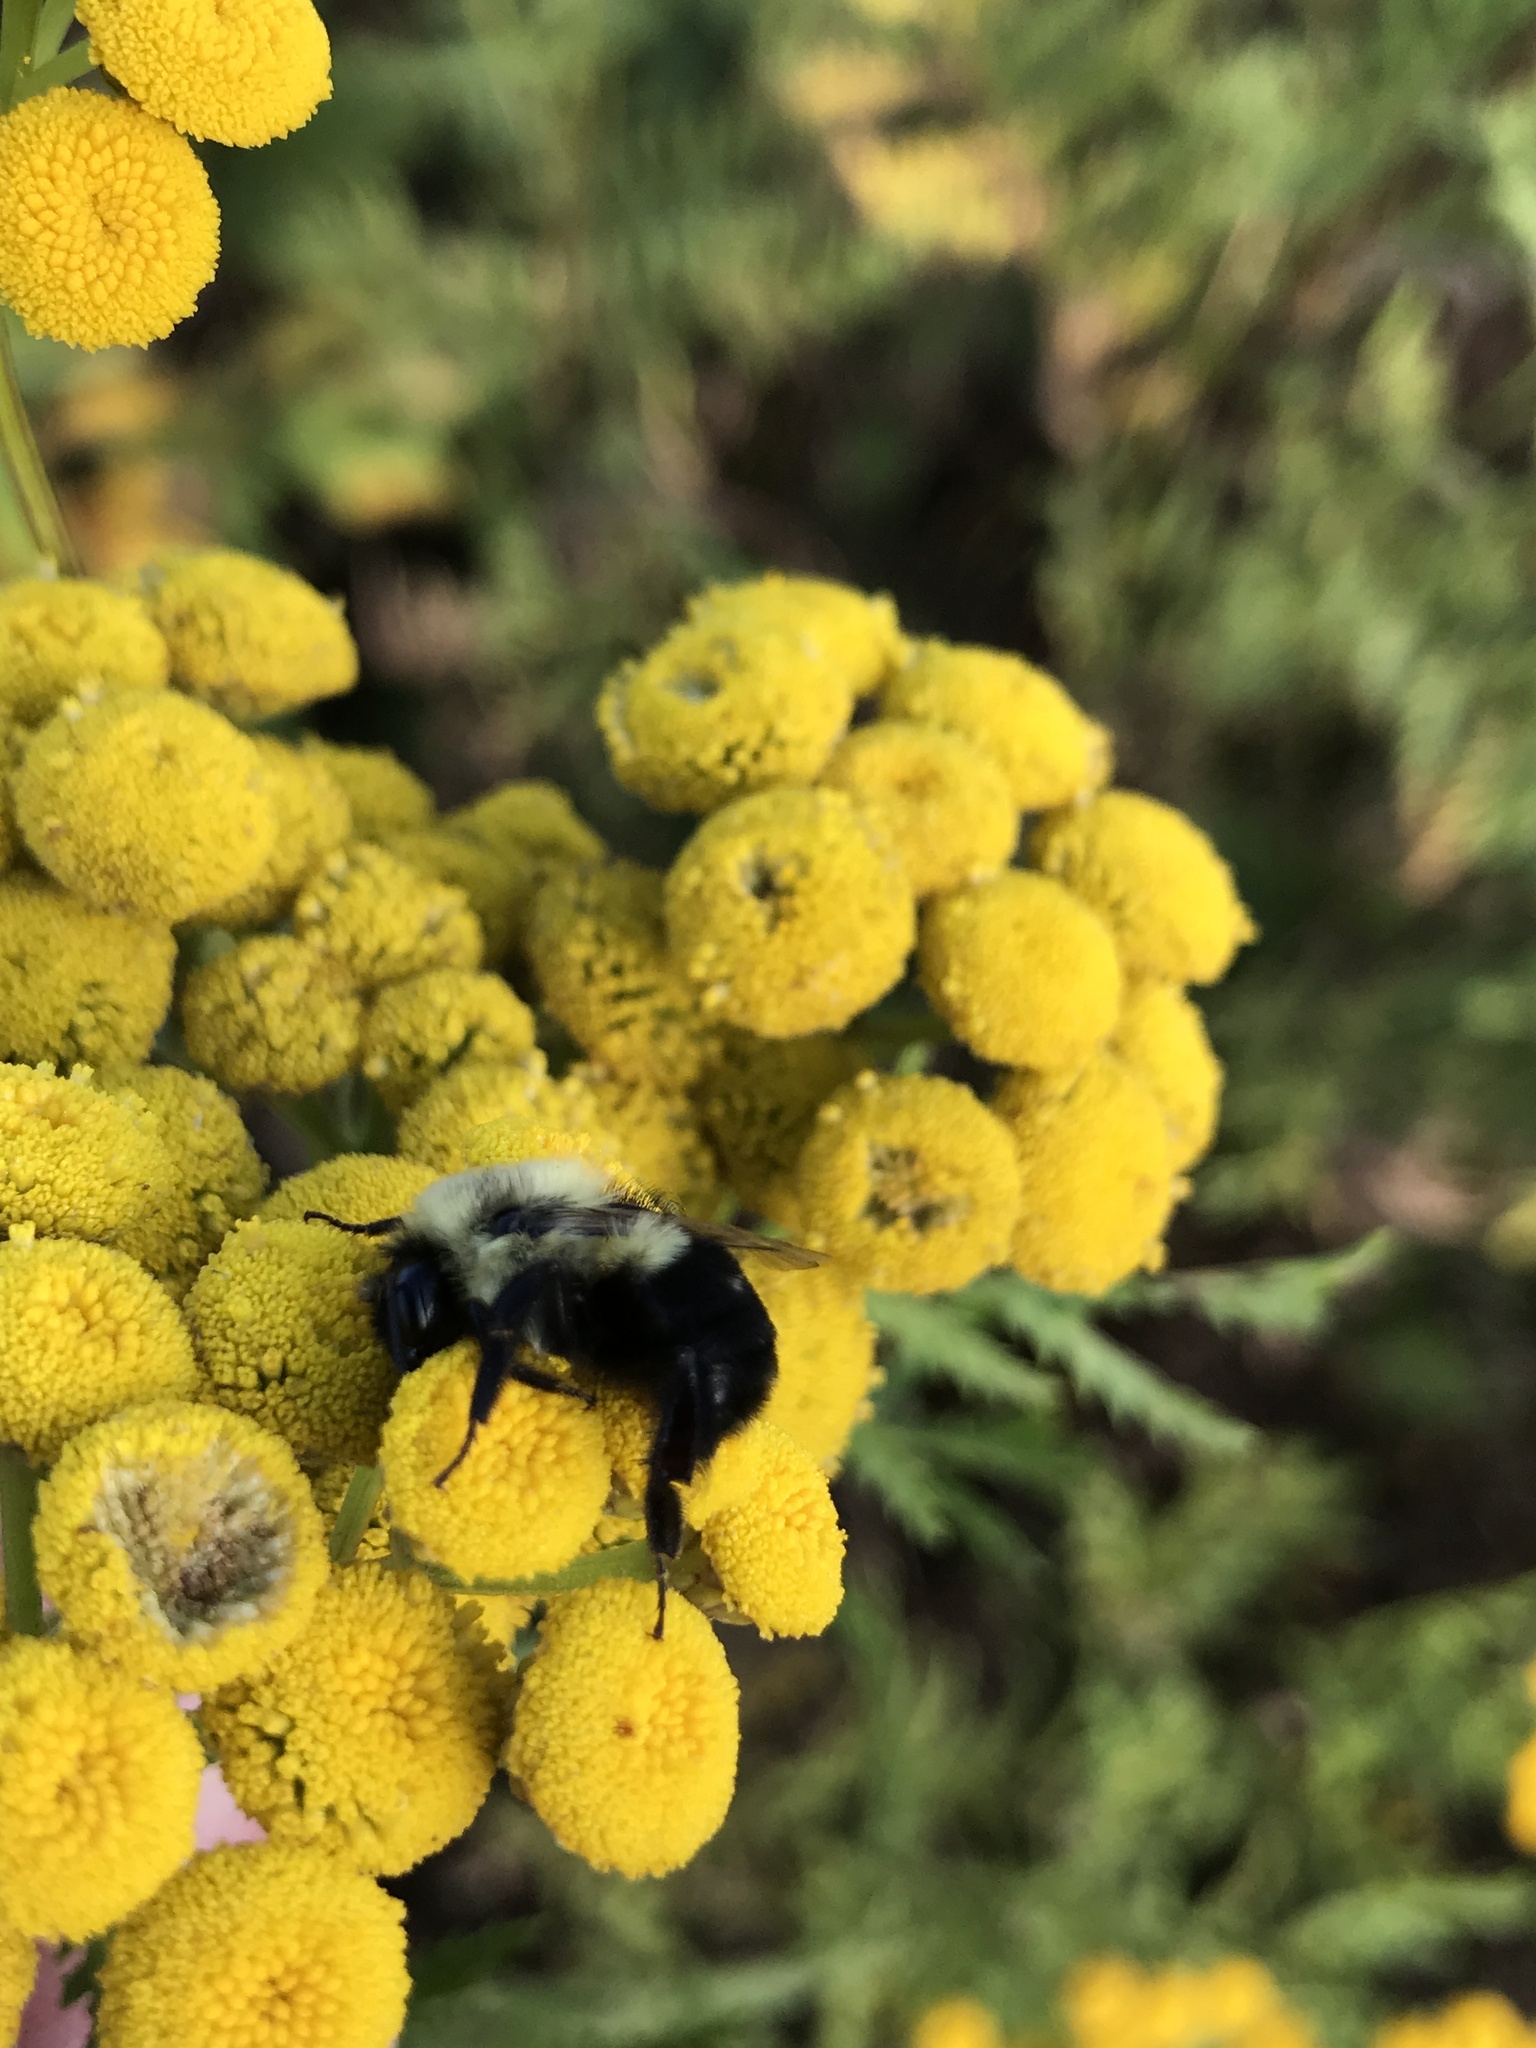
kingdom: Animalia
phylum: Arthropoda
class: Insecta
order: Hymenoptera
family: Apidae
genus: Bombus
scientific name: Bombus impatiens
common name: Common eastern bumble bee
